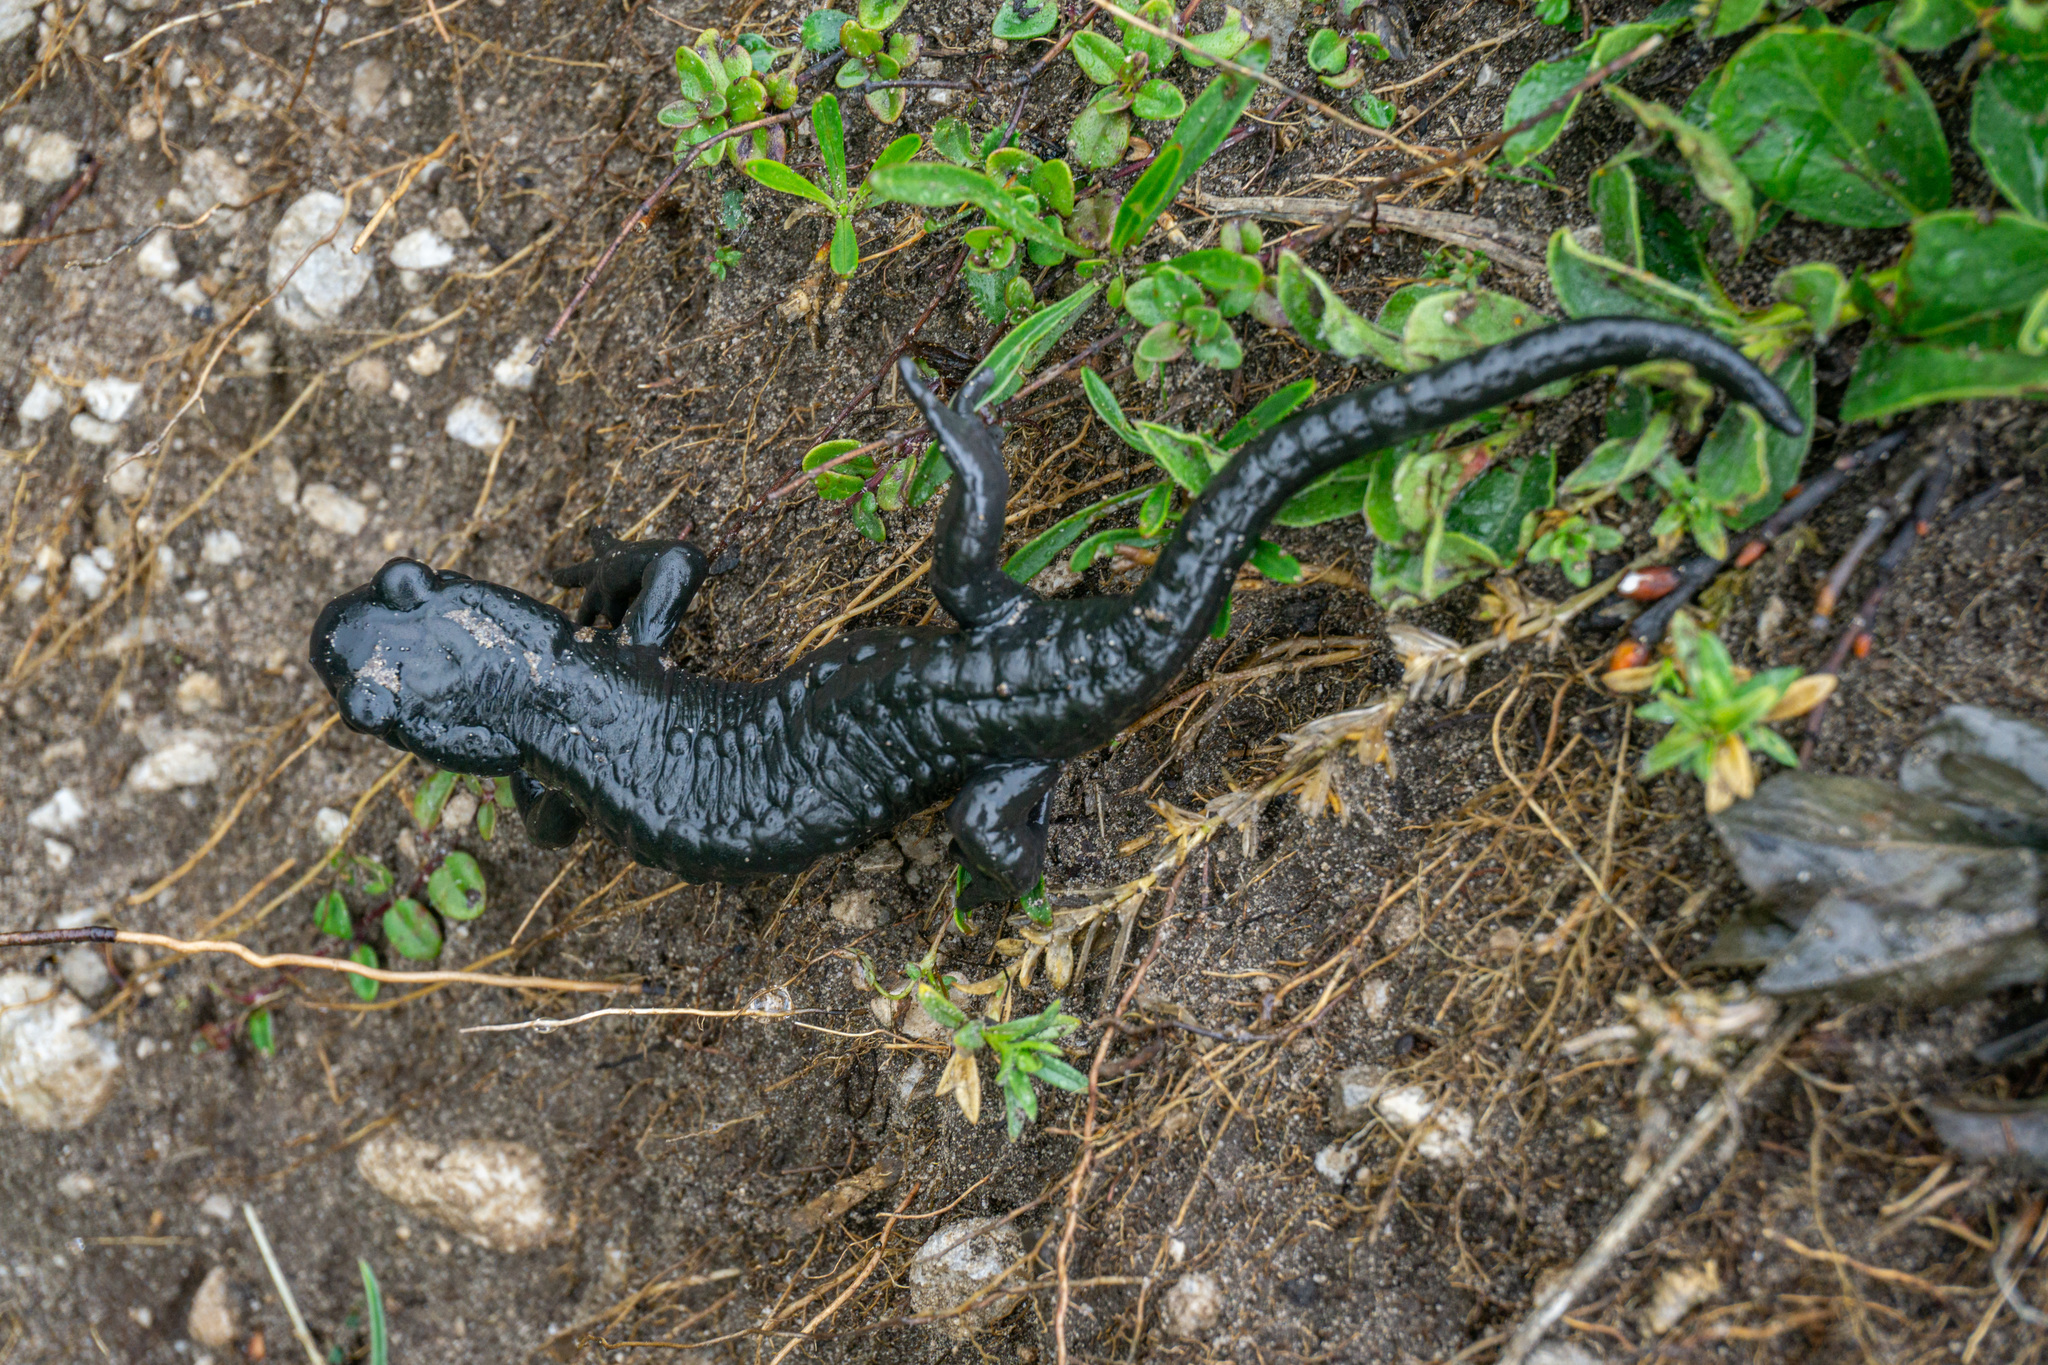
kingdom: Animalia
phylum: Chordata
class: Amphibia
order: Caudata
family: Salamandridae
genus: Salamandra
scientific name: Salamandra atra
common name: Alpine salamander
